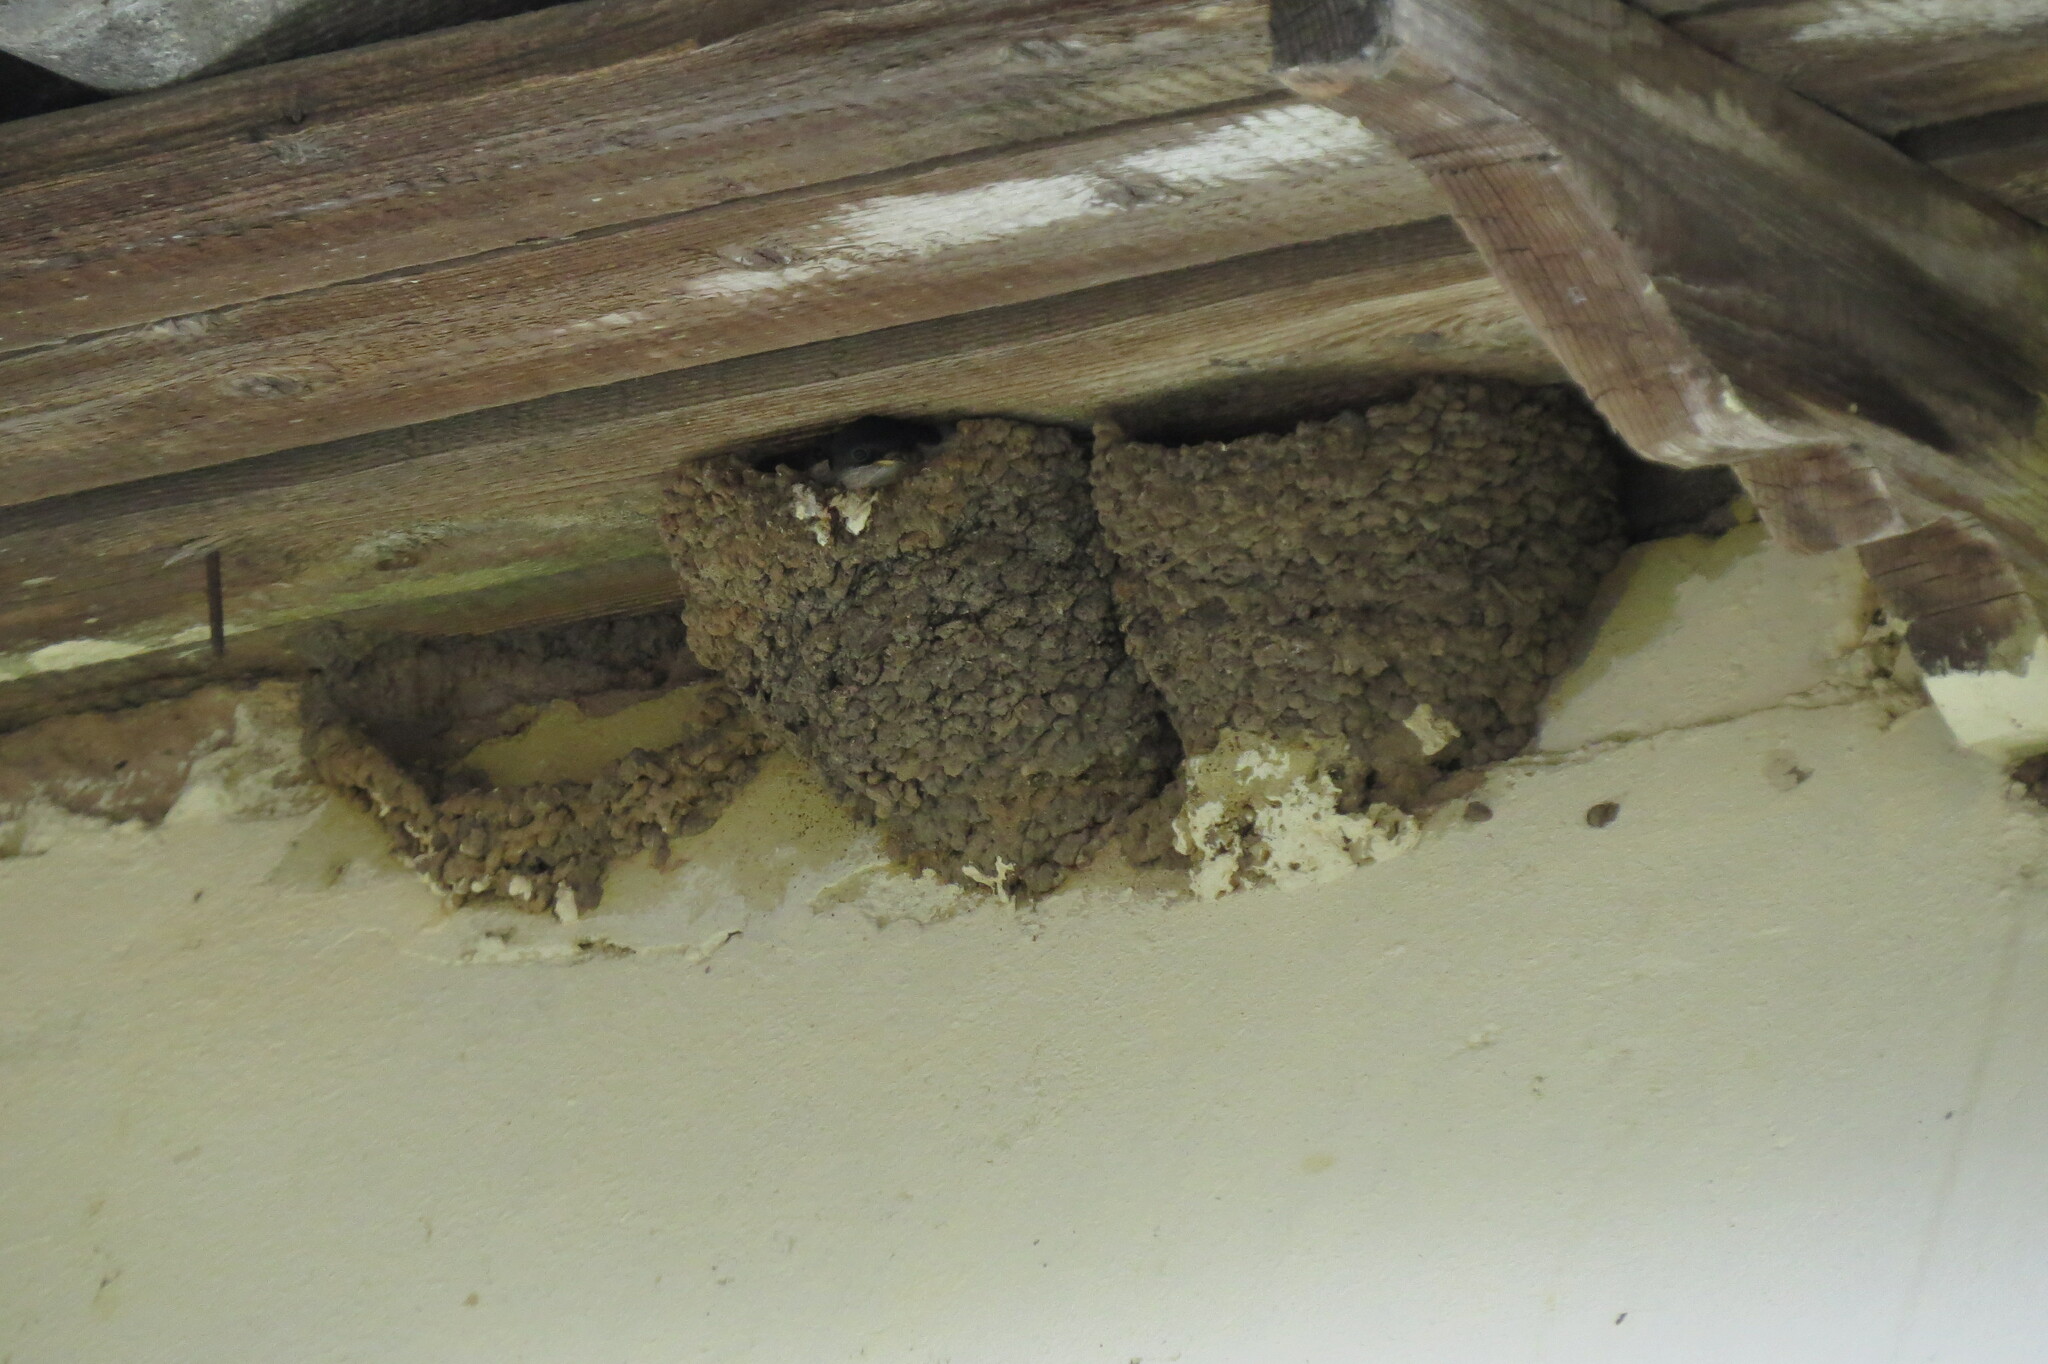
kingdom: Animalia
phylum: Chordata
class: Aves
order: Passeriformes
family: Hirundinidae
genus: Delichon
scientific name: Delichon urbicum
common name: Common house martin
